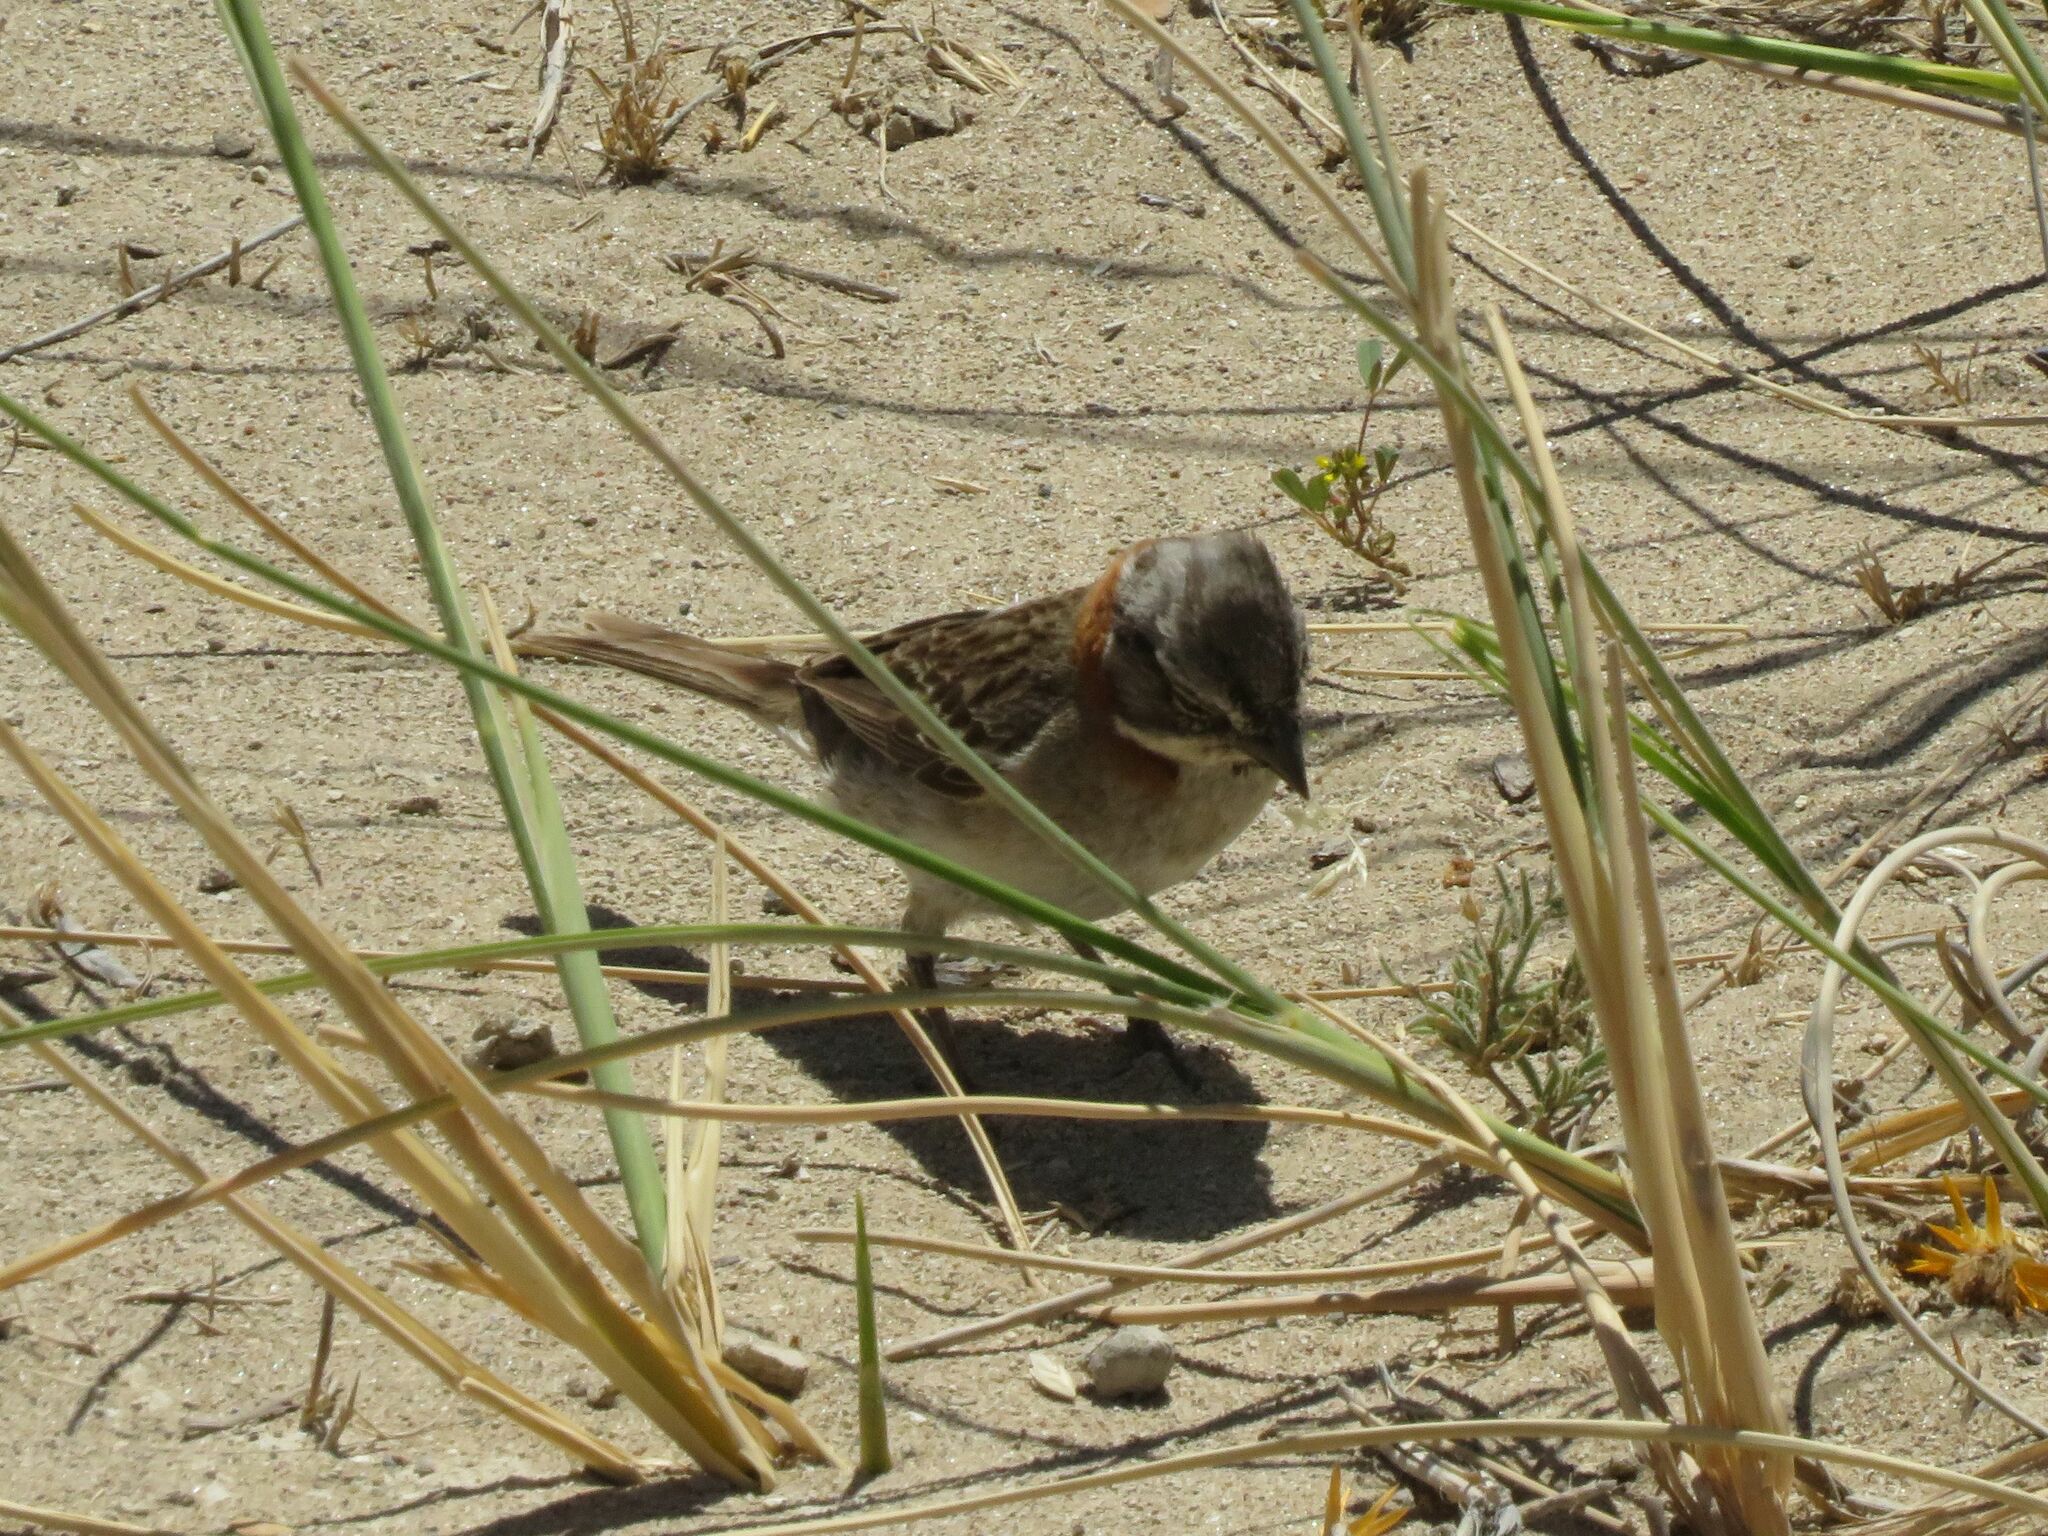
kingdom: Animalia
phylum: Chordata
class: Aves
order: Passeriformes
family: Passerellidae
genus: Zonotrichia
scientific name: Zonotrichia capensis
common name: Rufous-collared sparrow
